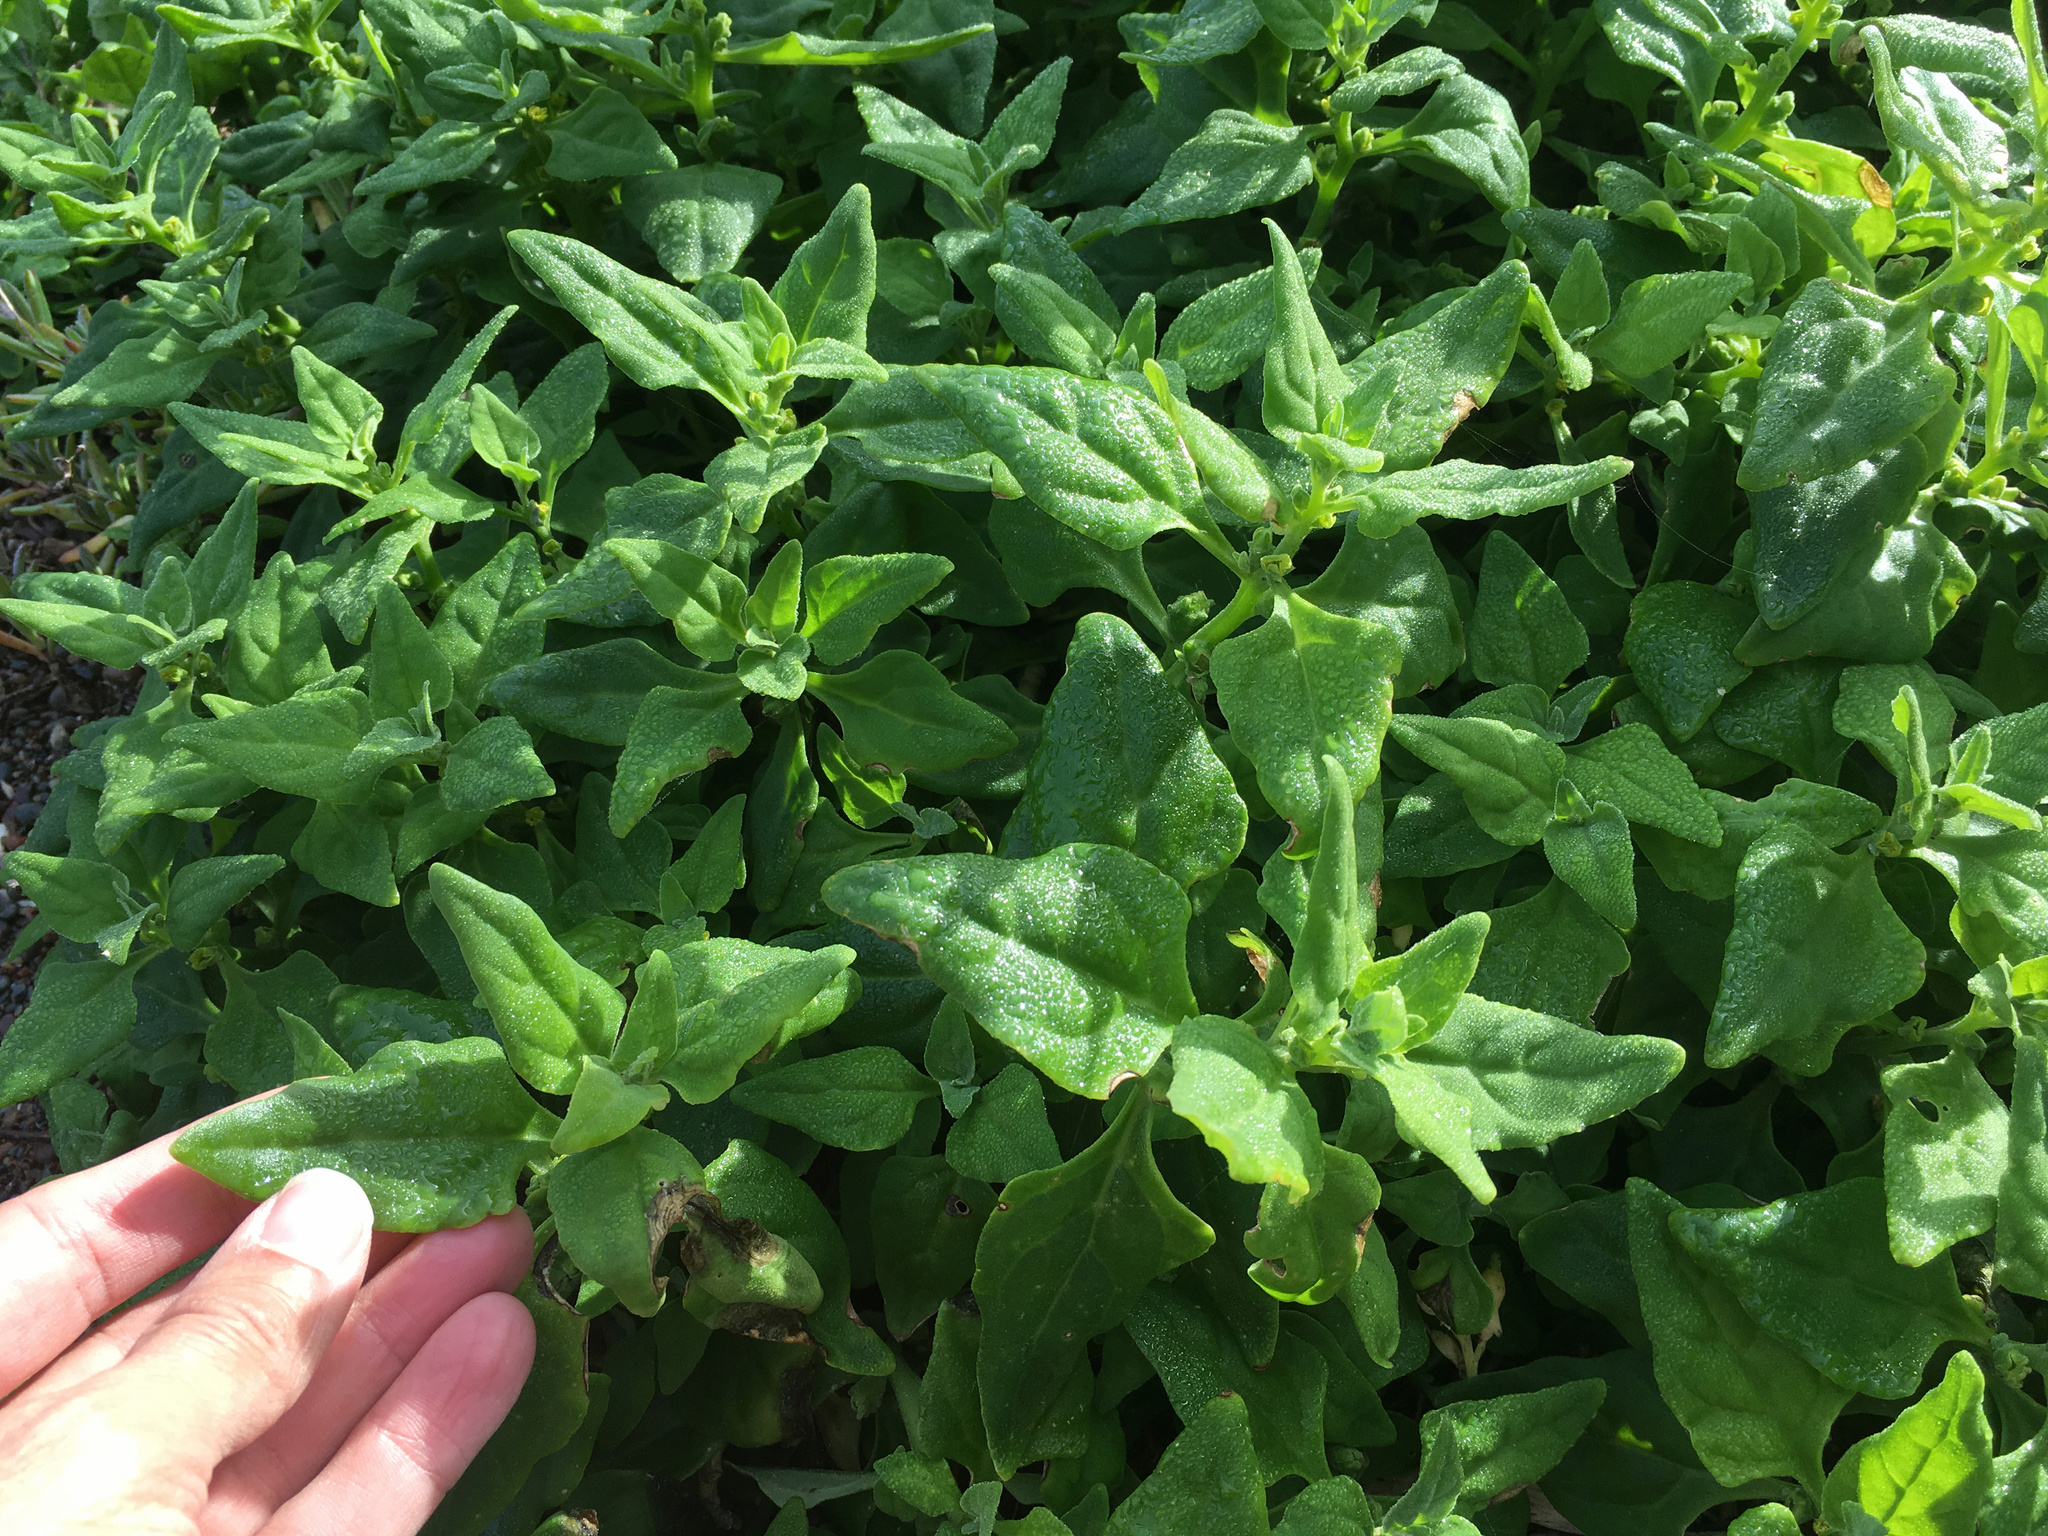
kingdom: Plantae
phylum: Tracheophyta
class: Magnoliopsida
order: Caryophyllales
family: Aizoaceae
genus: Tetragonia
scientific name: Tetragonia tetragonoides
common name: New zealand-spinach
